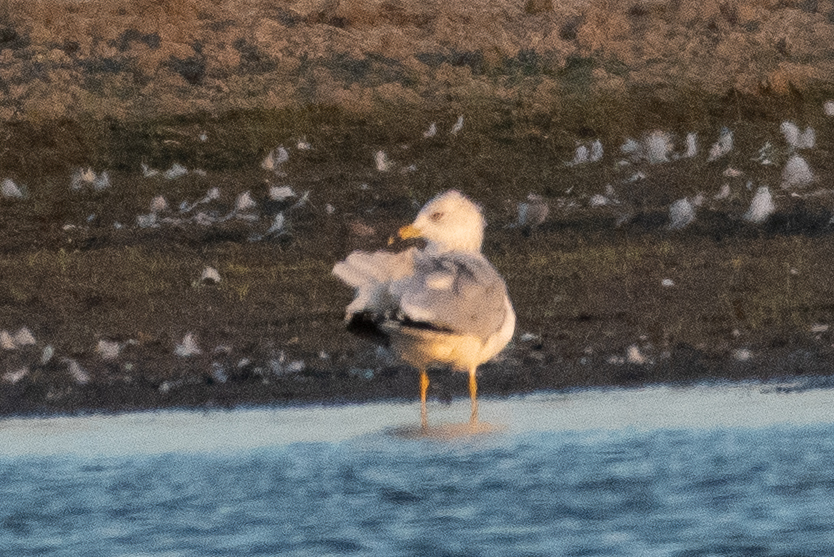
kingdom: Animalia
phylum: Chordata
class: Aves
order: Charadriiformes
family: Laridae
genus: Larus
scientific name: Larus delawarensis
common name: Ring-billed gull
